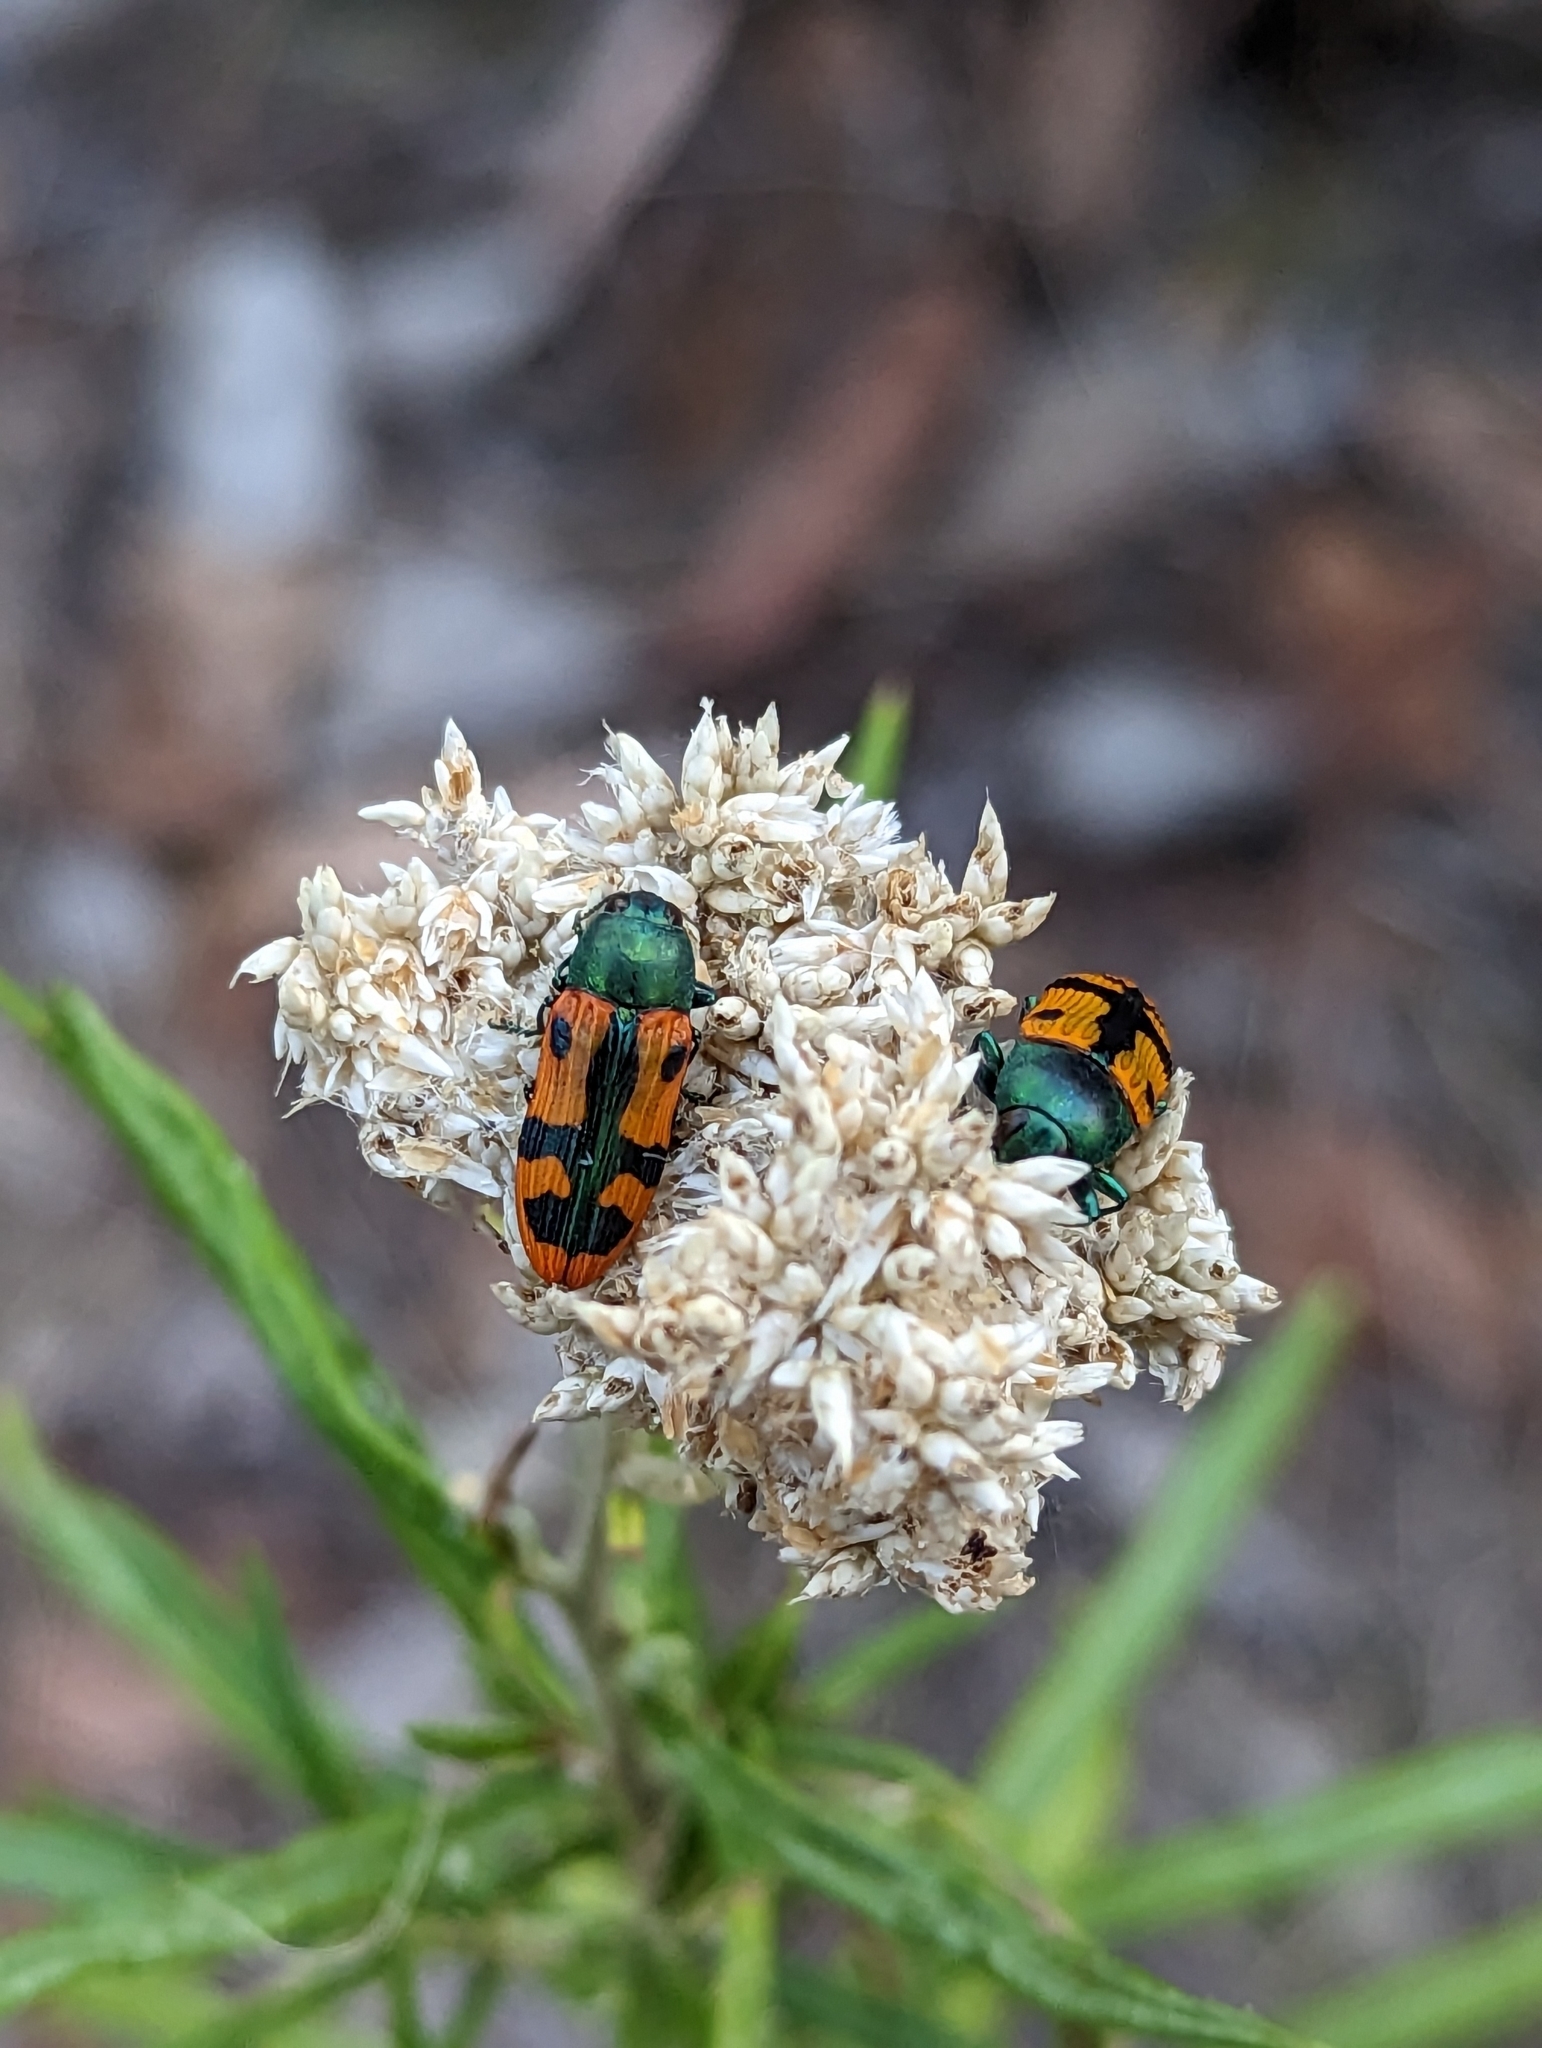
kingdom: Animalia
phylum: Arthropoda
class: Insecta
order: Coleoptera
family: Buprestidae
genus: Castiarina
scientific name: Castiarina scalaris
